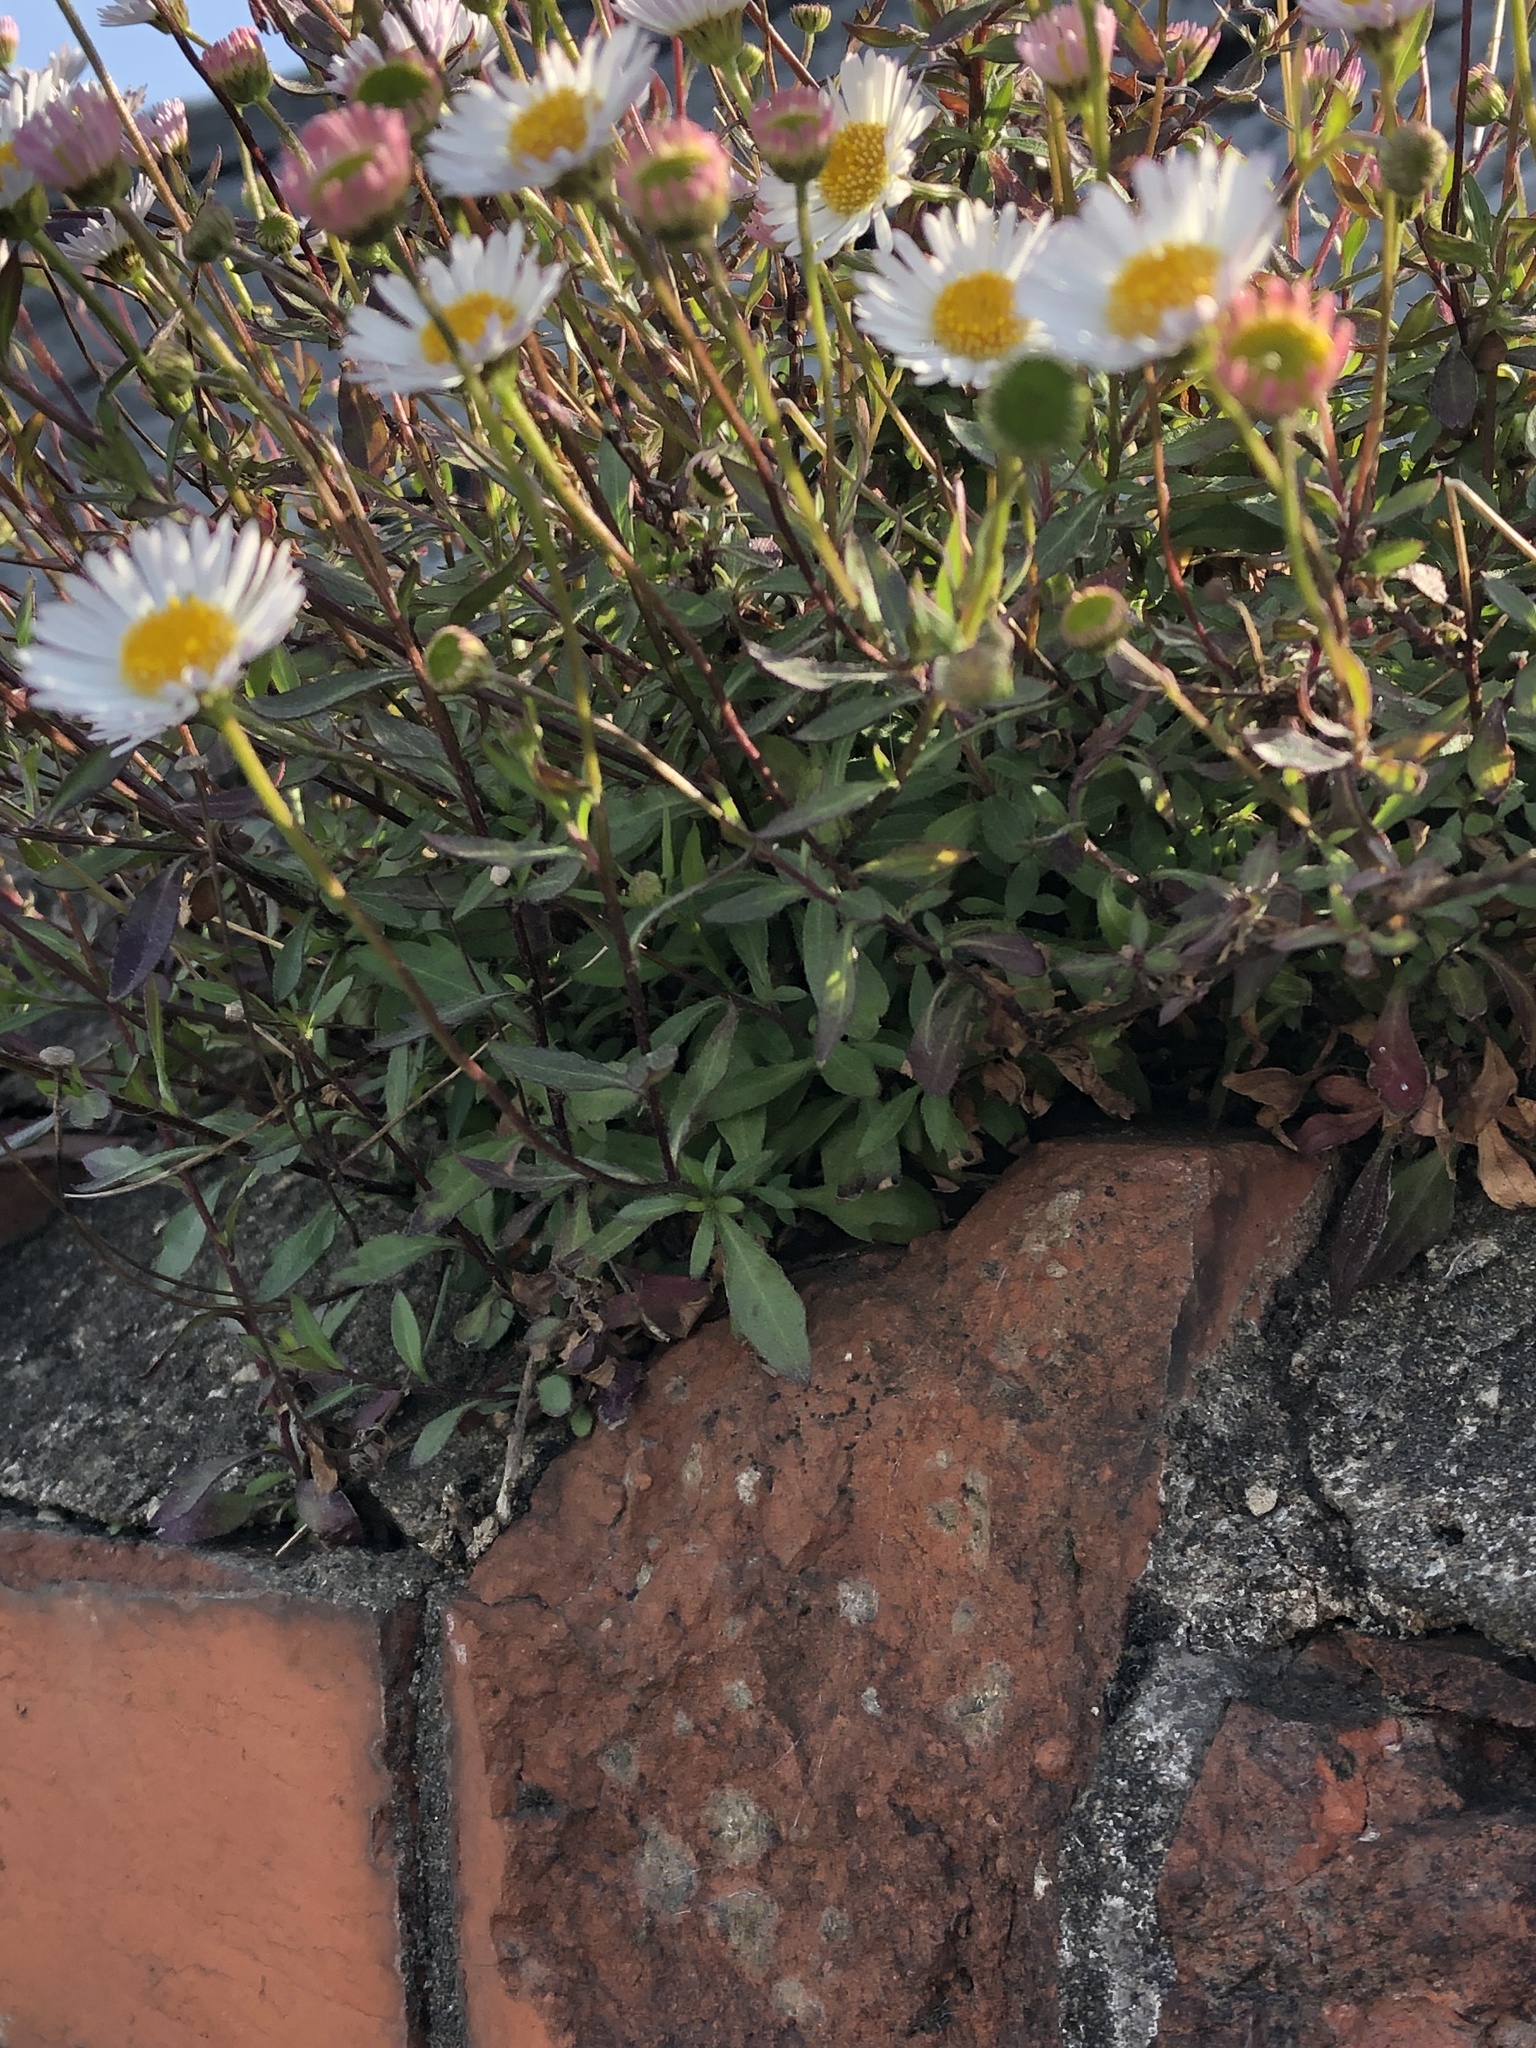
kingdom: Plantae
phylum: Tracheophyta
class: Magnoliopsida
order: Asterales
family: Asteraceae
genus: Erigeron
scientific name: Erigeron karvinskianus
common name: Mexican fleabane
